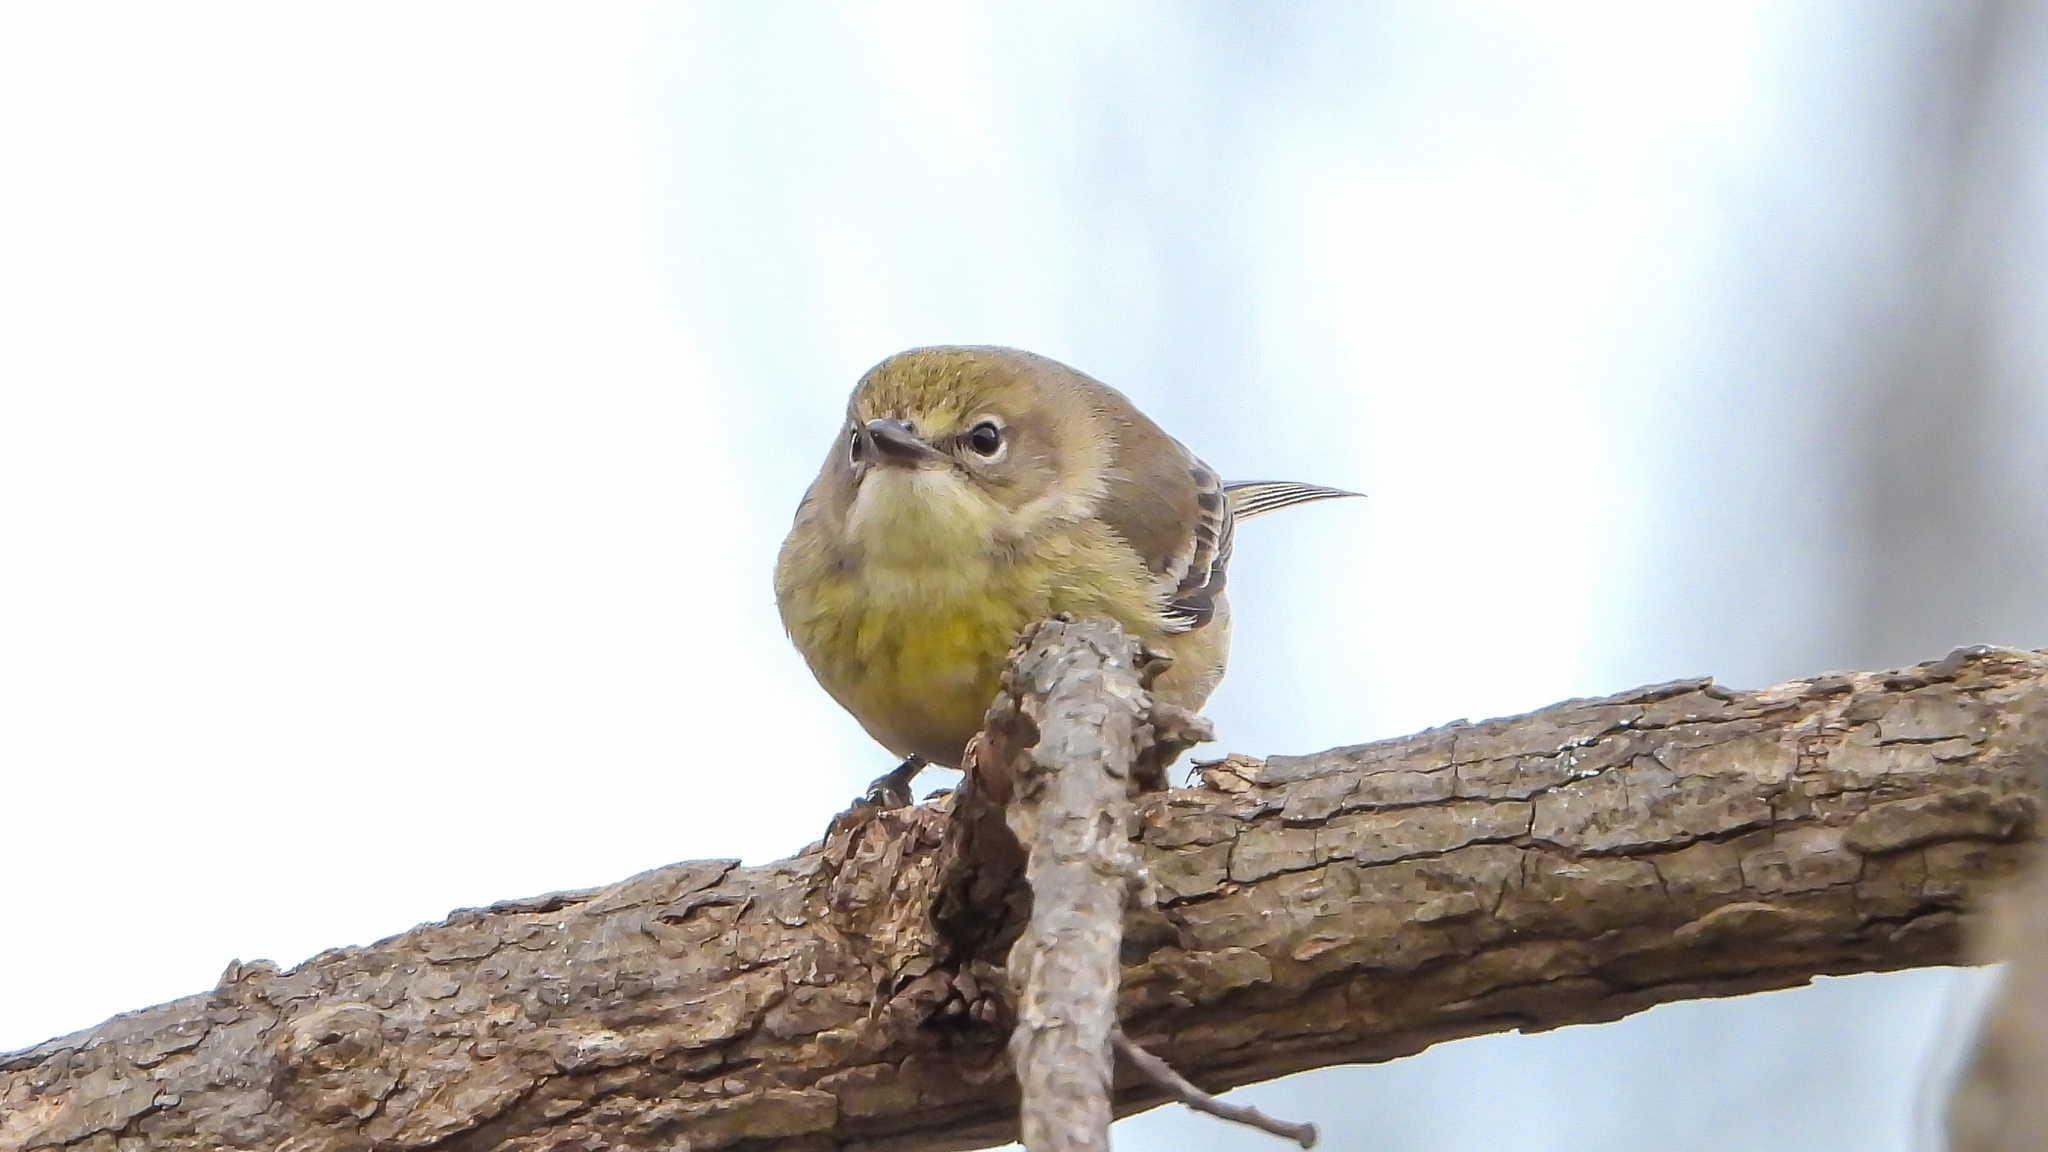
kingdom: Animalia
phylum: Chordata
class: Aves
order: Passeriformes
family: Parulidae
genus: Setophaga
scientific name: Setophaga pinus
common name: Pine warbler
